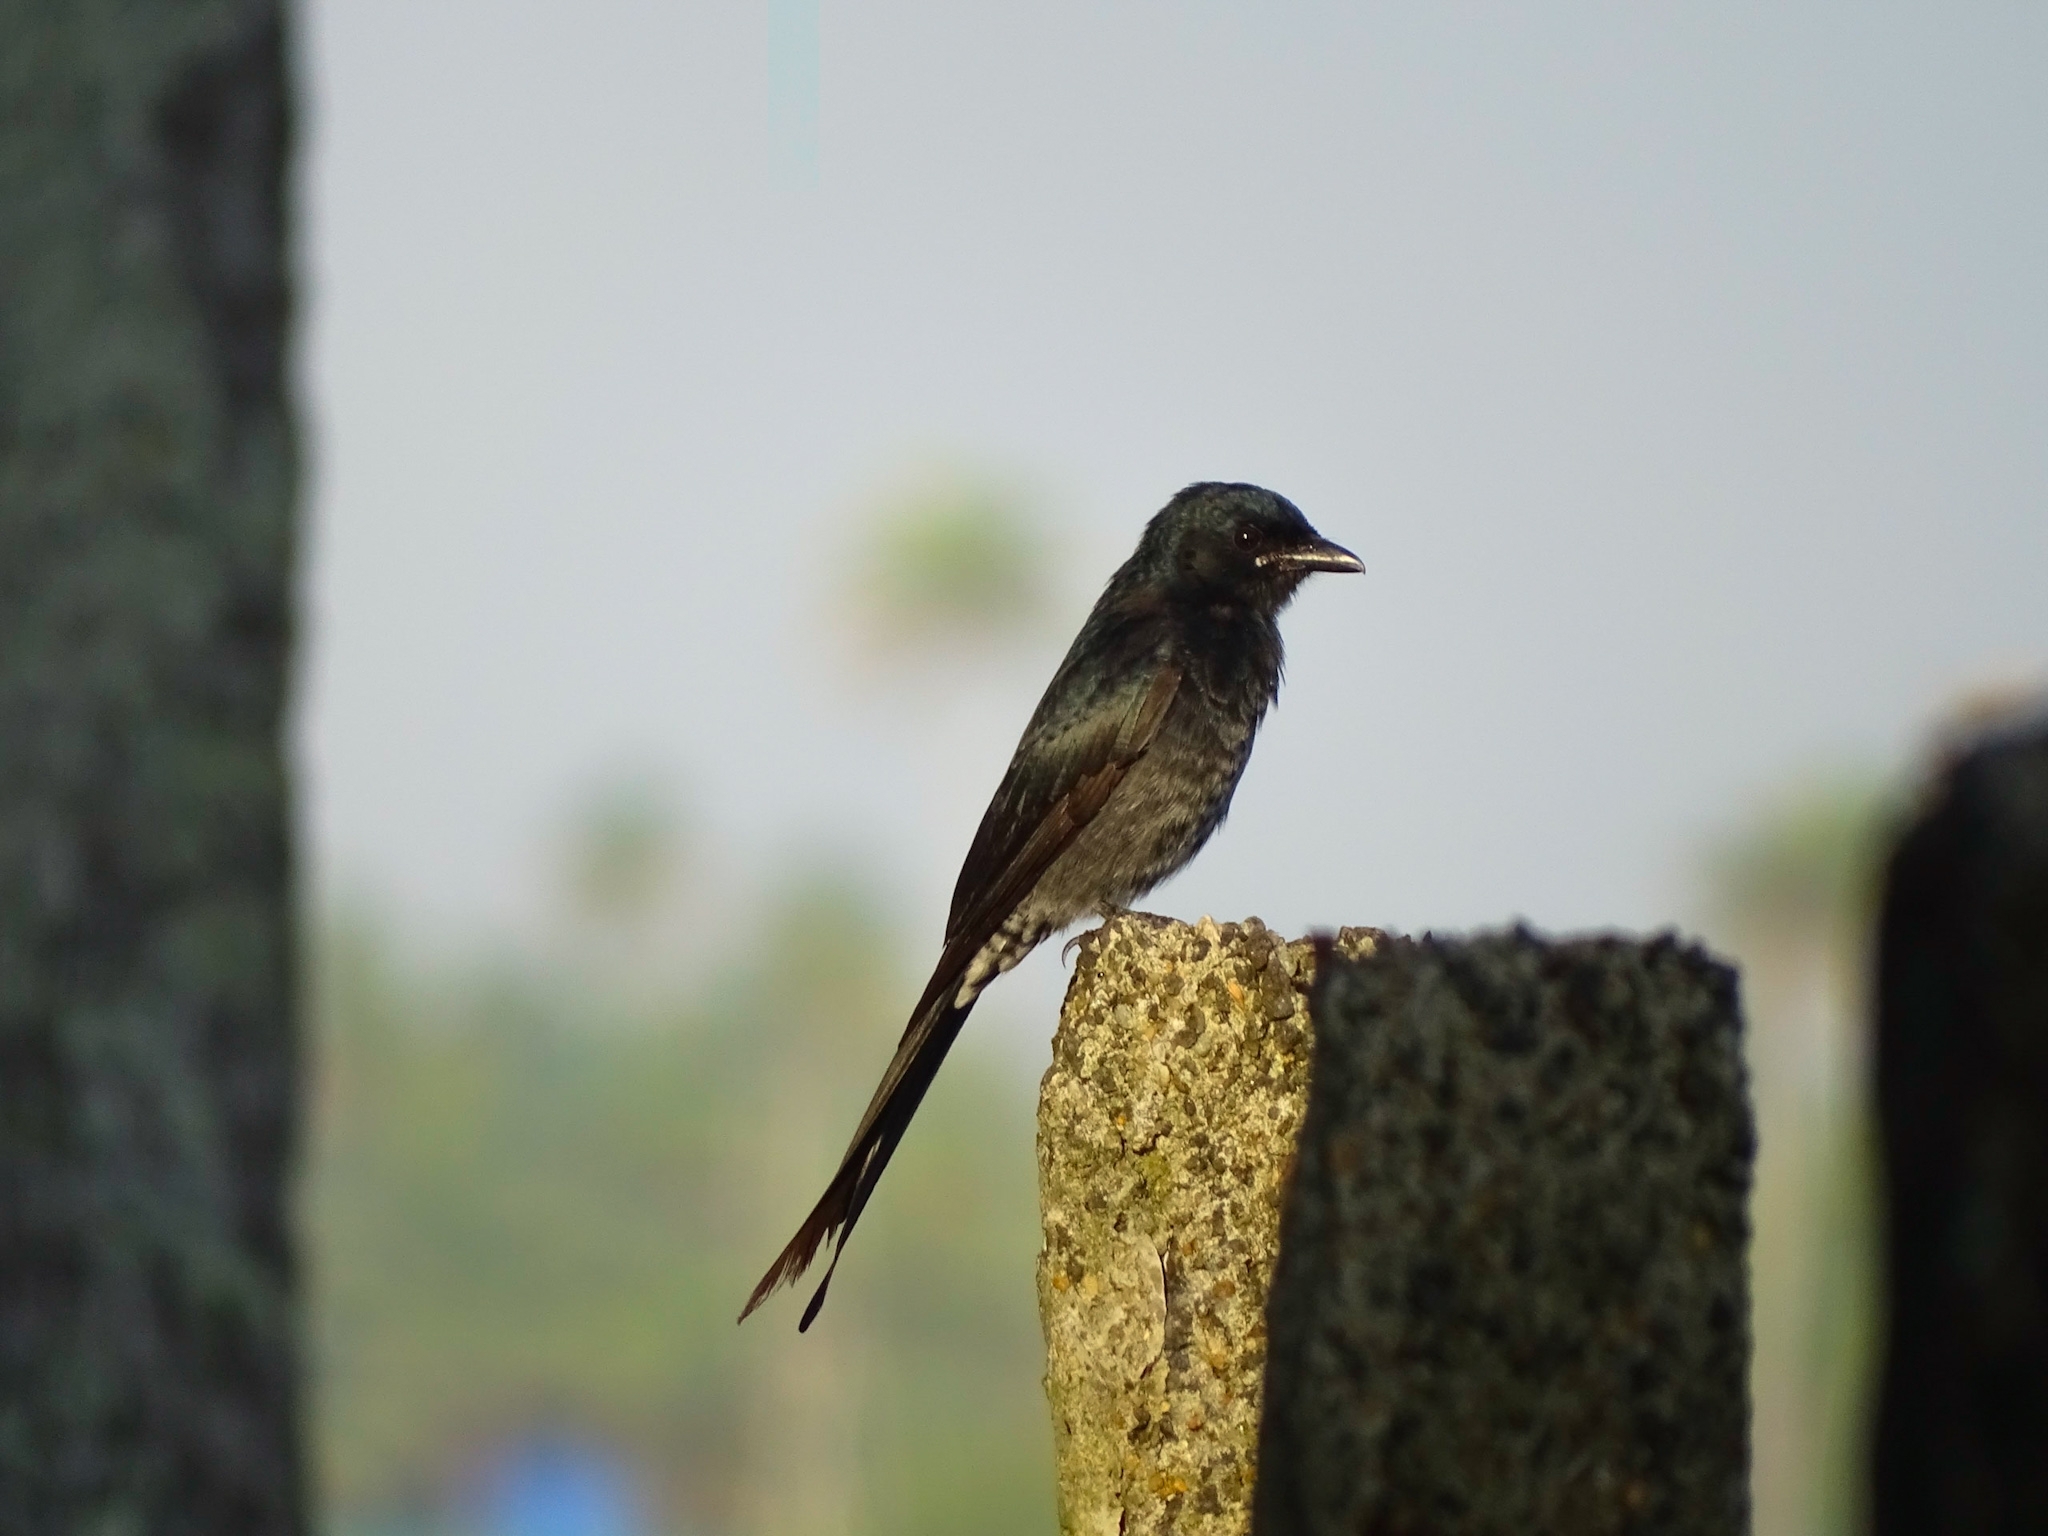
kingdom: Animalia
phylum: Chordata
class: Aves
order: Passeriformes
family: Dicruridae
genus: Dicrurus
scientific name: Dicrurus macrocercus
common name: Black drongo
